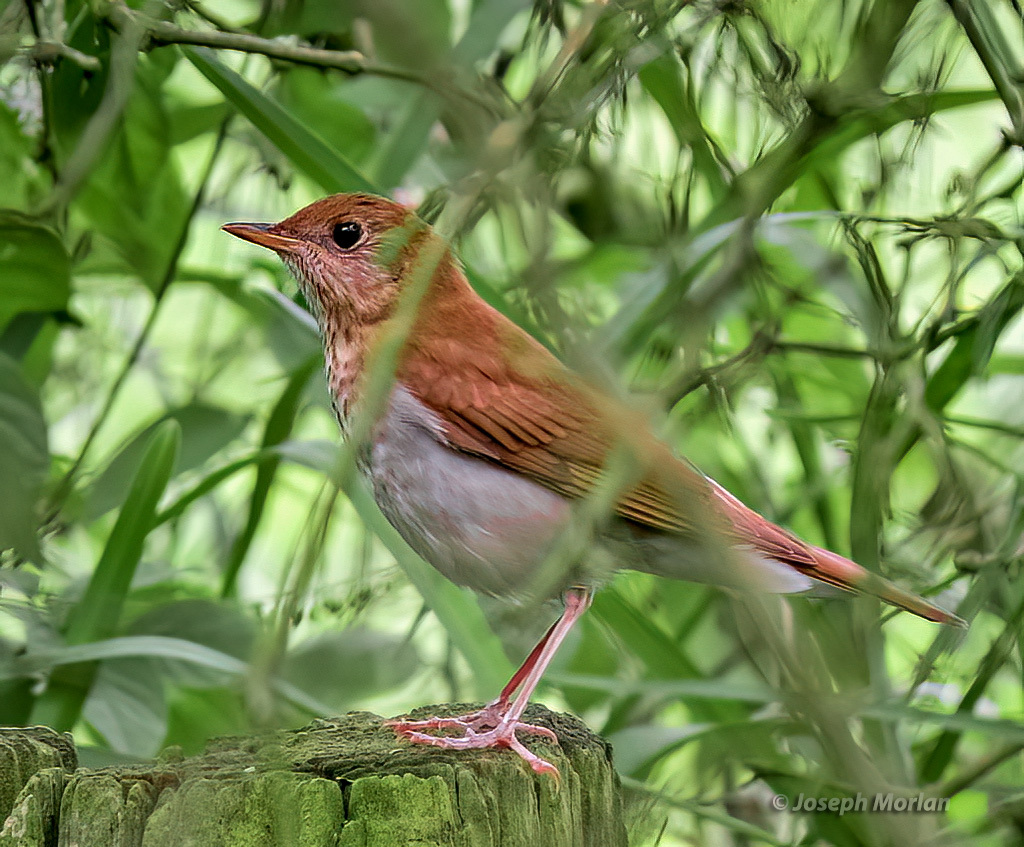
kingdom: Animalia
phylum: Chordata
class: Aves
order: Passeriformes
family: Turdidae
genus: Catharus
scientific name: Catharus fuscescens
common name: Veery
